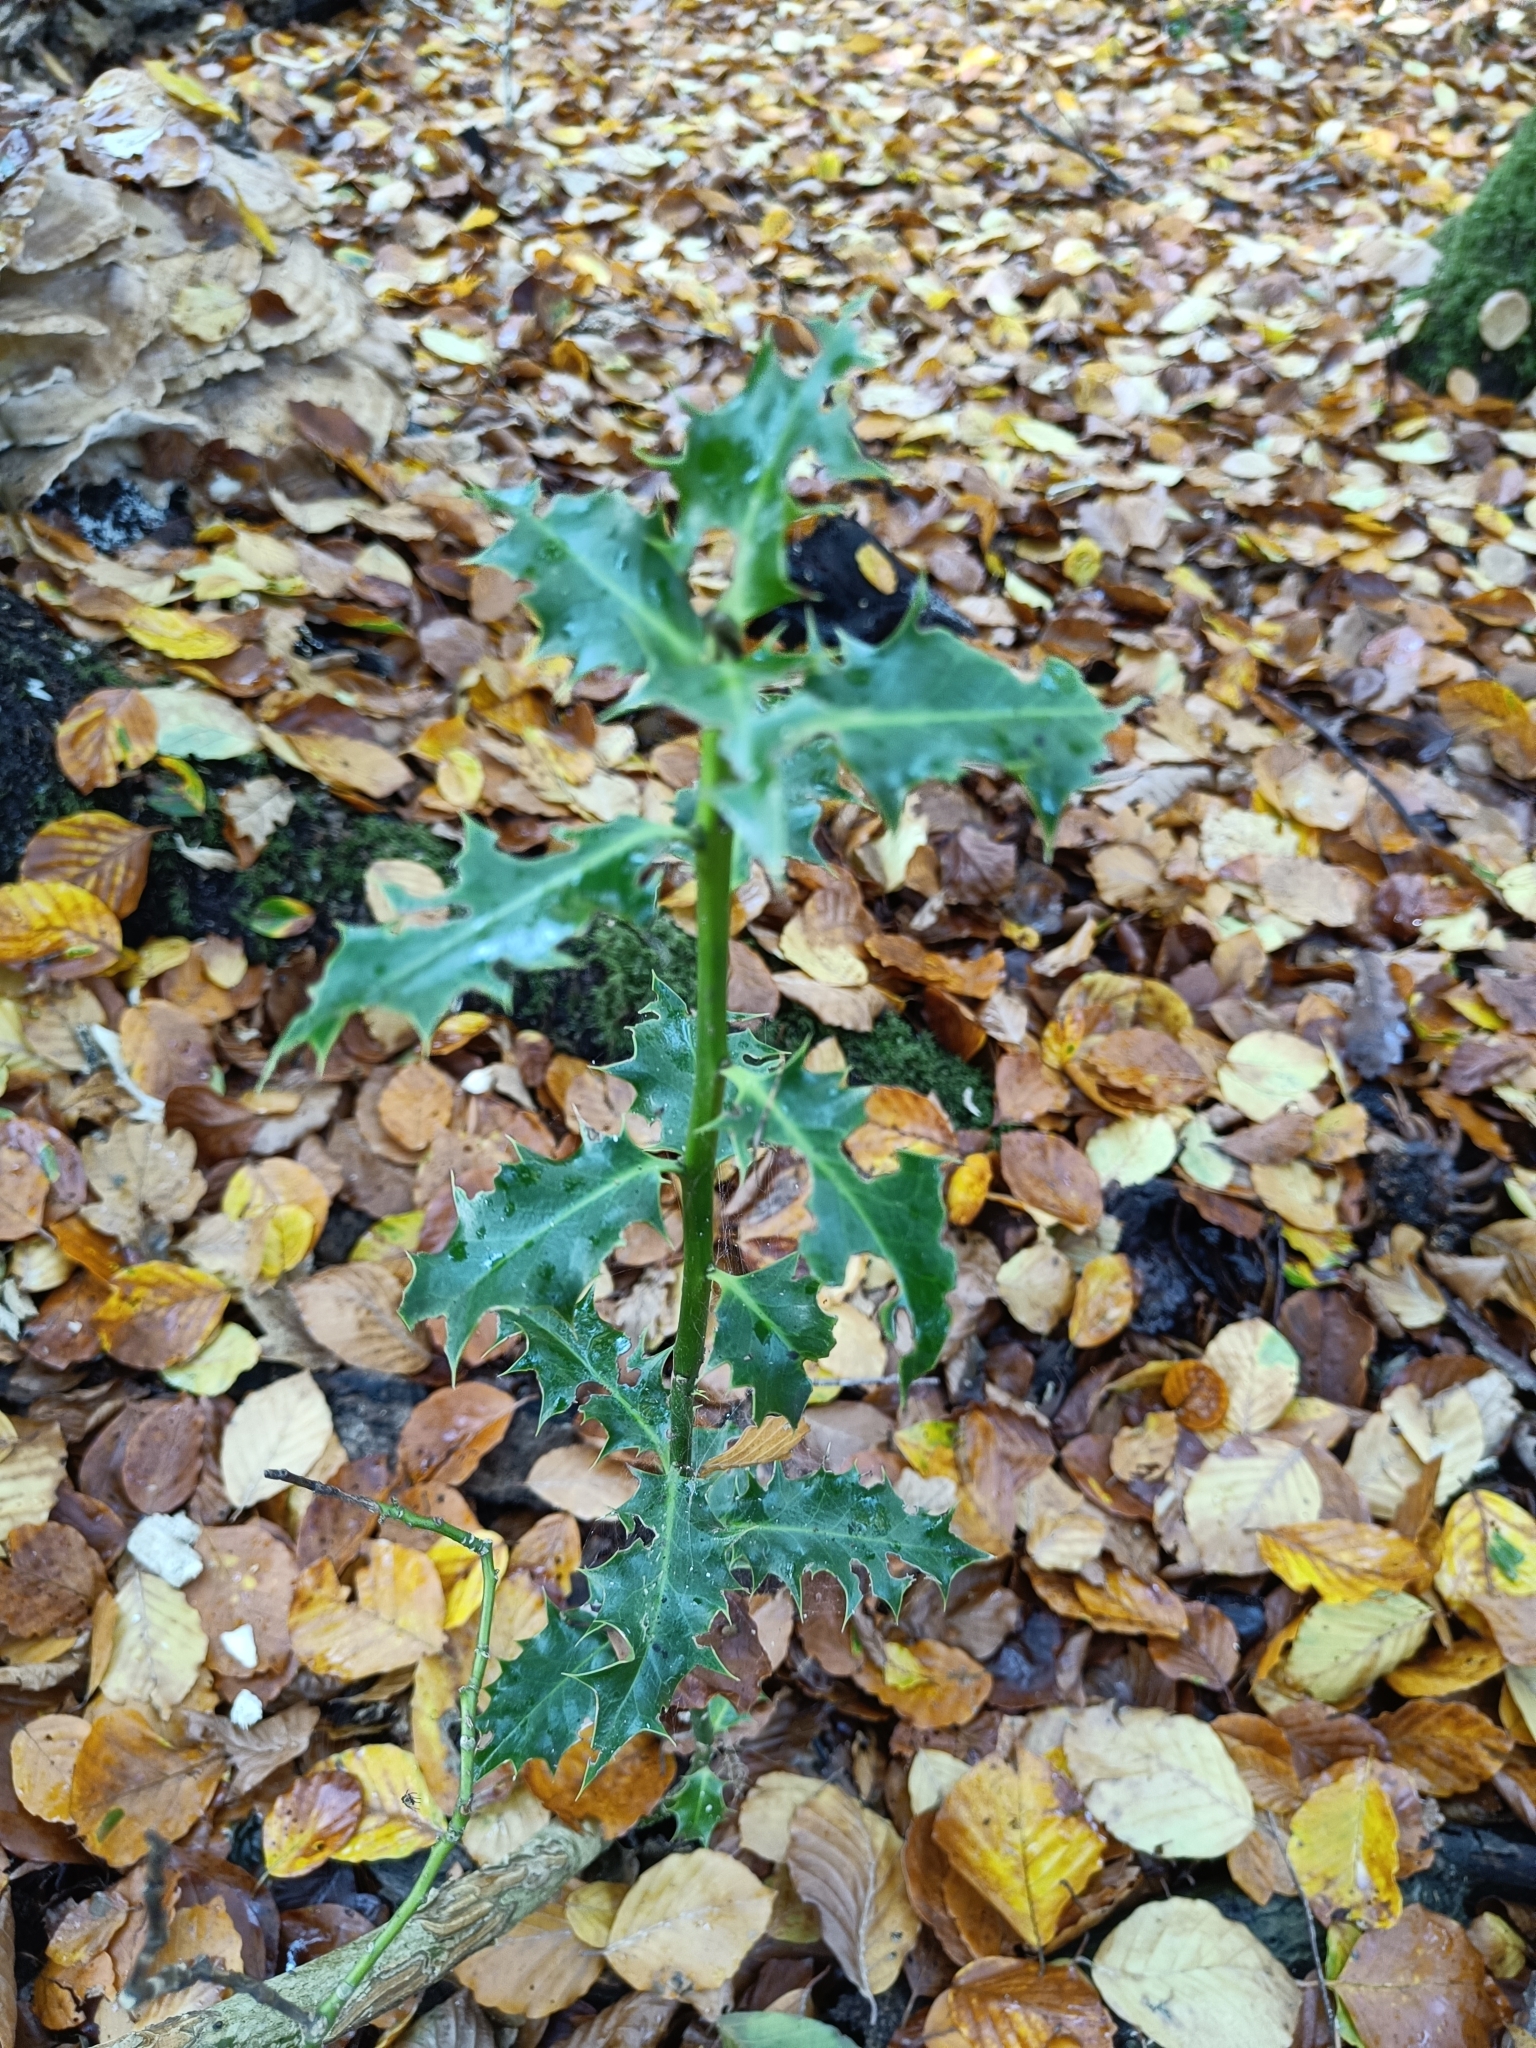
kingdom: Plantae
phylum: Tracheophyta
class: Magnoliopsida
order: Aquifoliales
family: Aquifoliaceae
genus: Ilex
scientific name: Ilex aquifolium
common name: English holly
